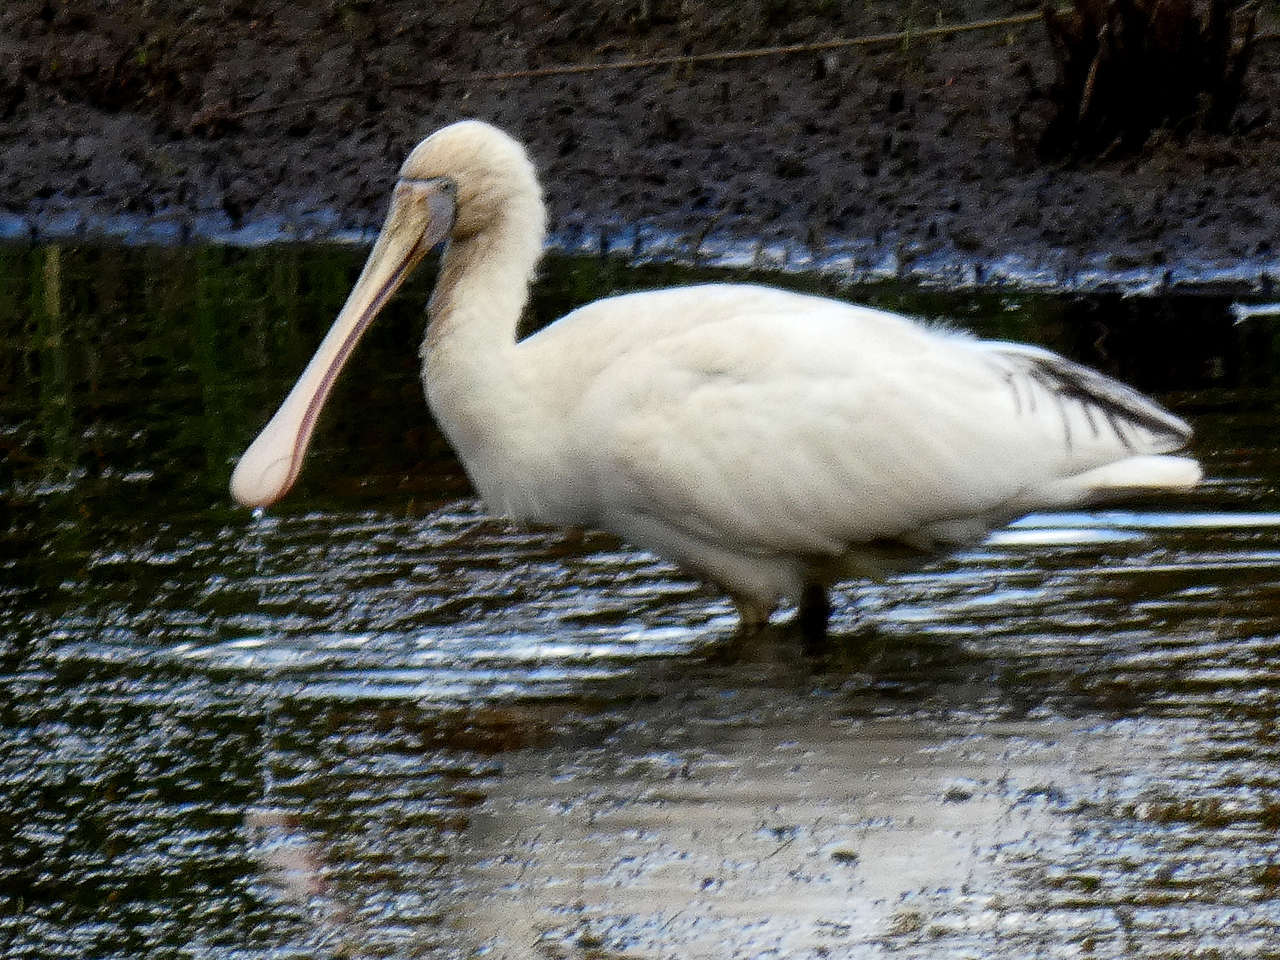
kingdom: Animalia
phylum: Chordata
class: Aves
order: Pelecaniformes
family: Threskiornithidae
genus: Platalea
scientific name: Platalea flavipes
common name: Yellow-billed spoonbill
